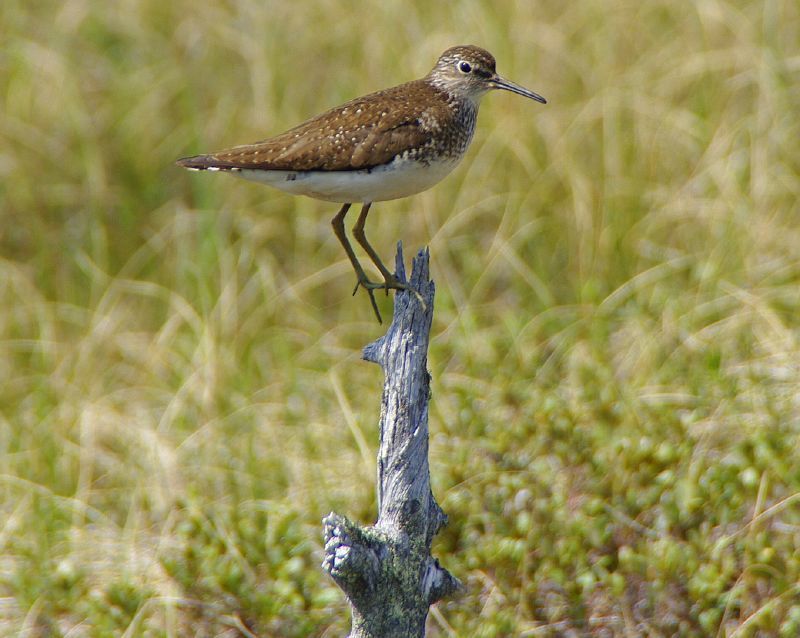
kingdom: Animalia
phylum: Chordata
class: Aves
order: Charadriiformes
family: Scolopacidae
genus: Tringa
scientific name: Tringa solitaria
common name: Solitary sandpiper
